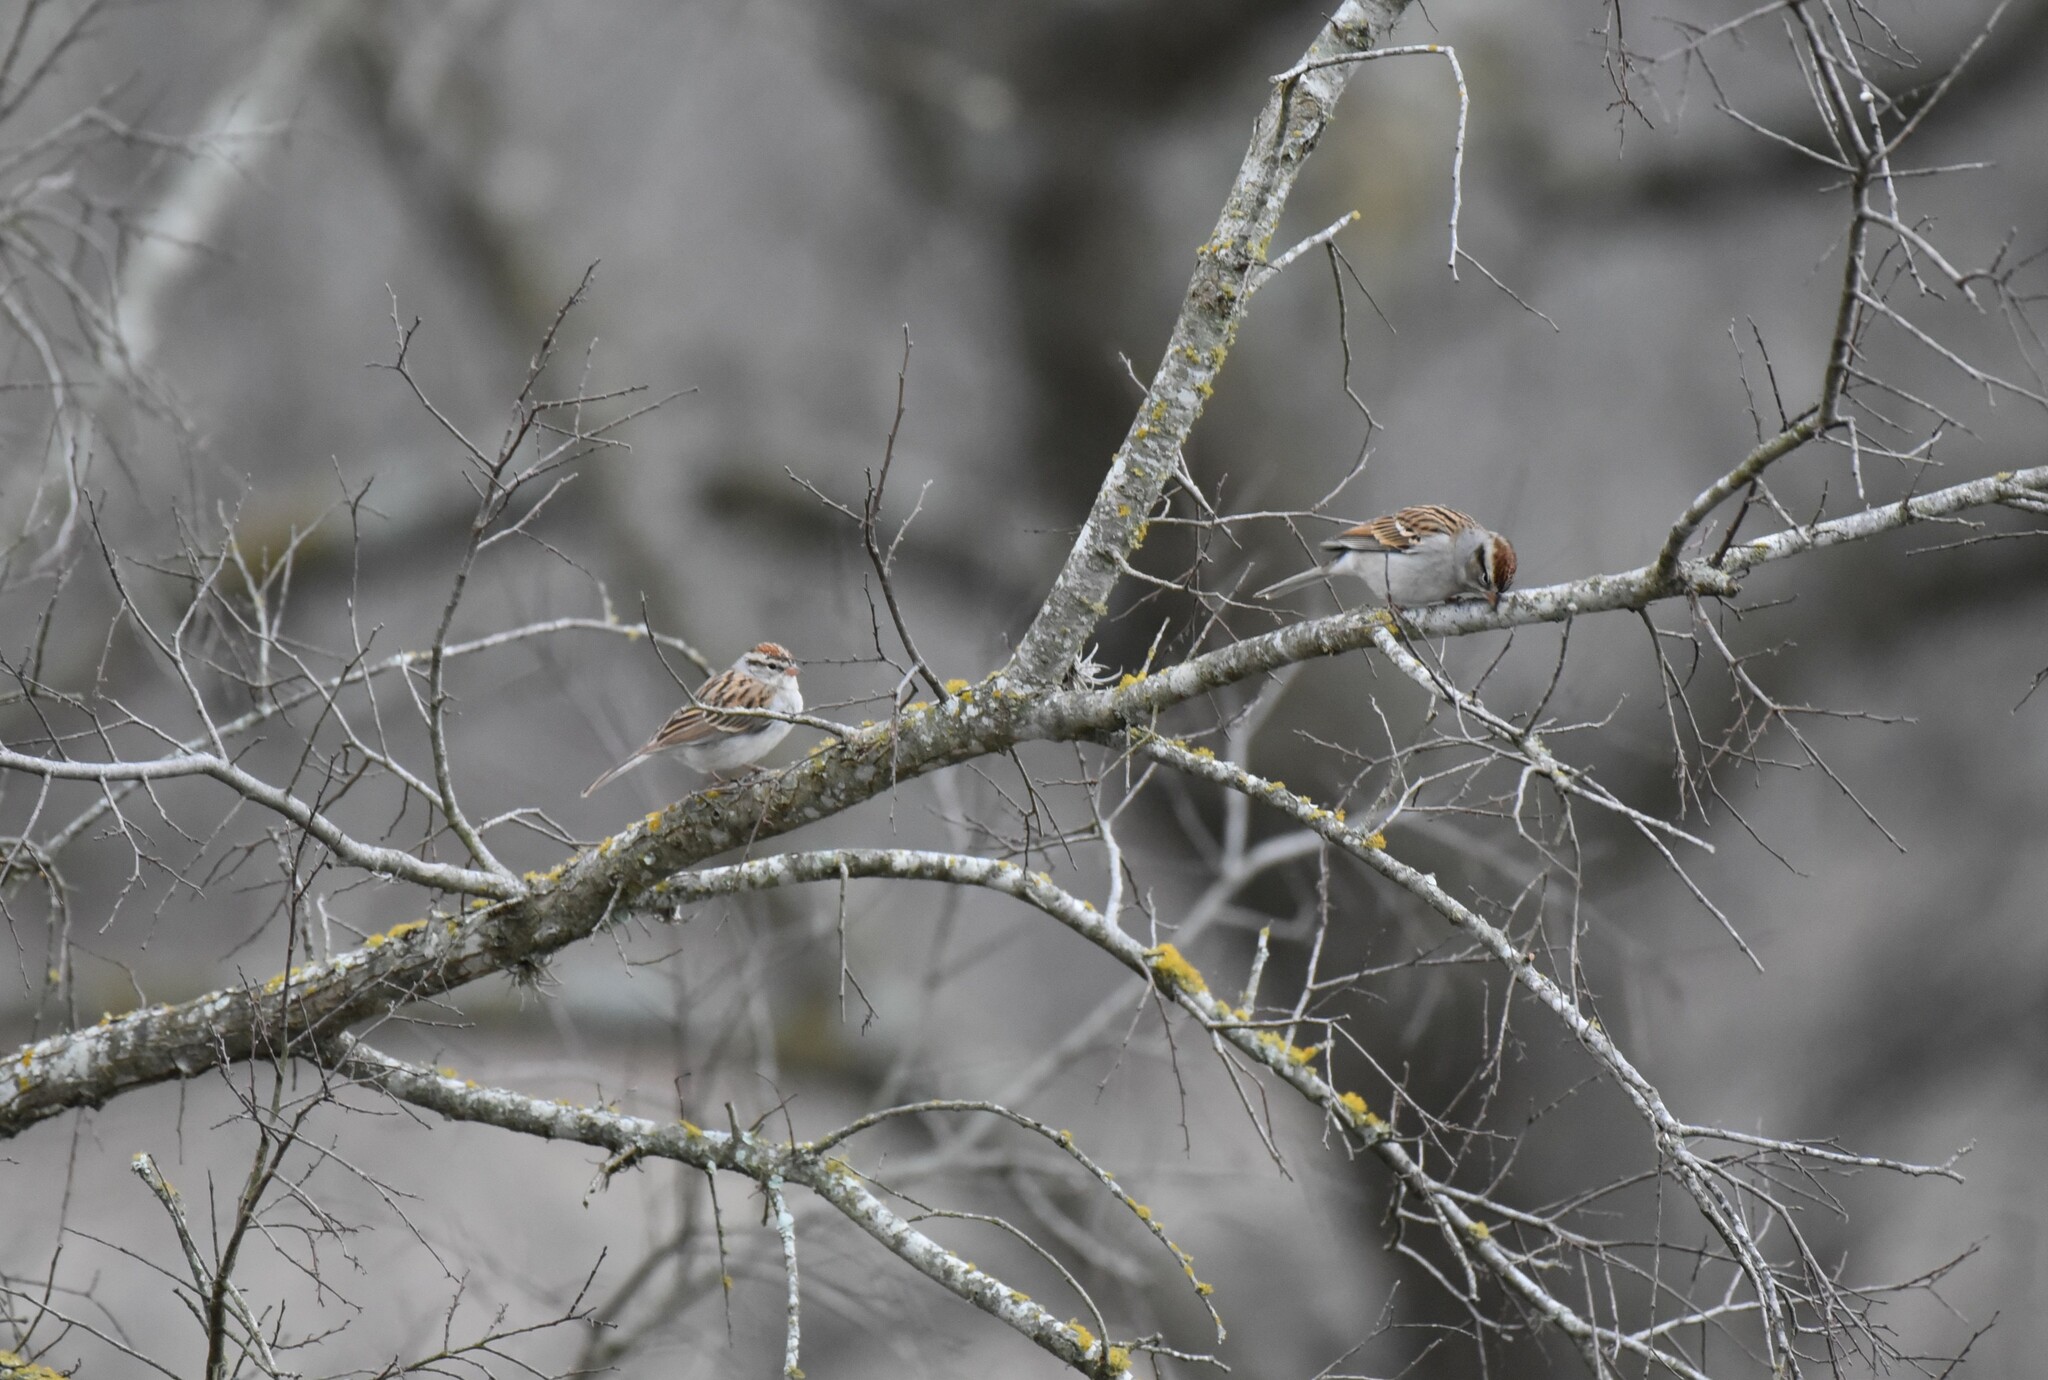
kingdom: Animalia
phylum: Chordata
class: Aves
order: Passeriformes
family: Passerellidae
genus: Spizella
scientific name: Spizella passerina
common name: Chipping sparrow
